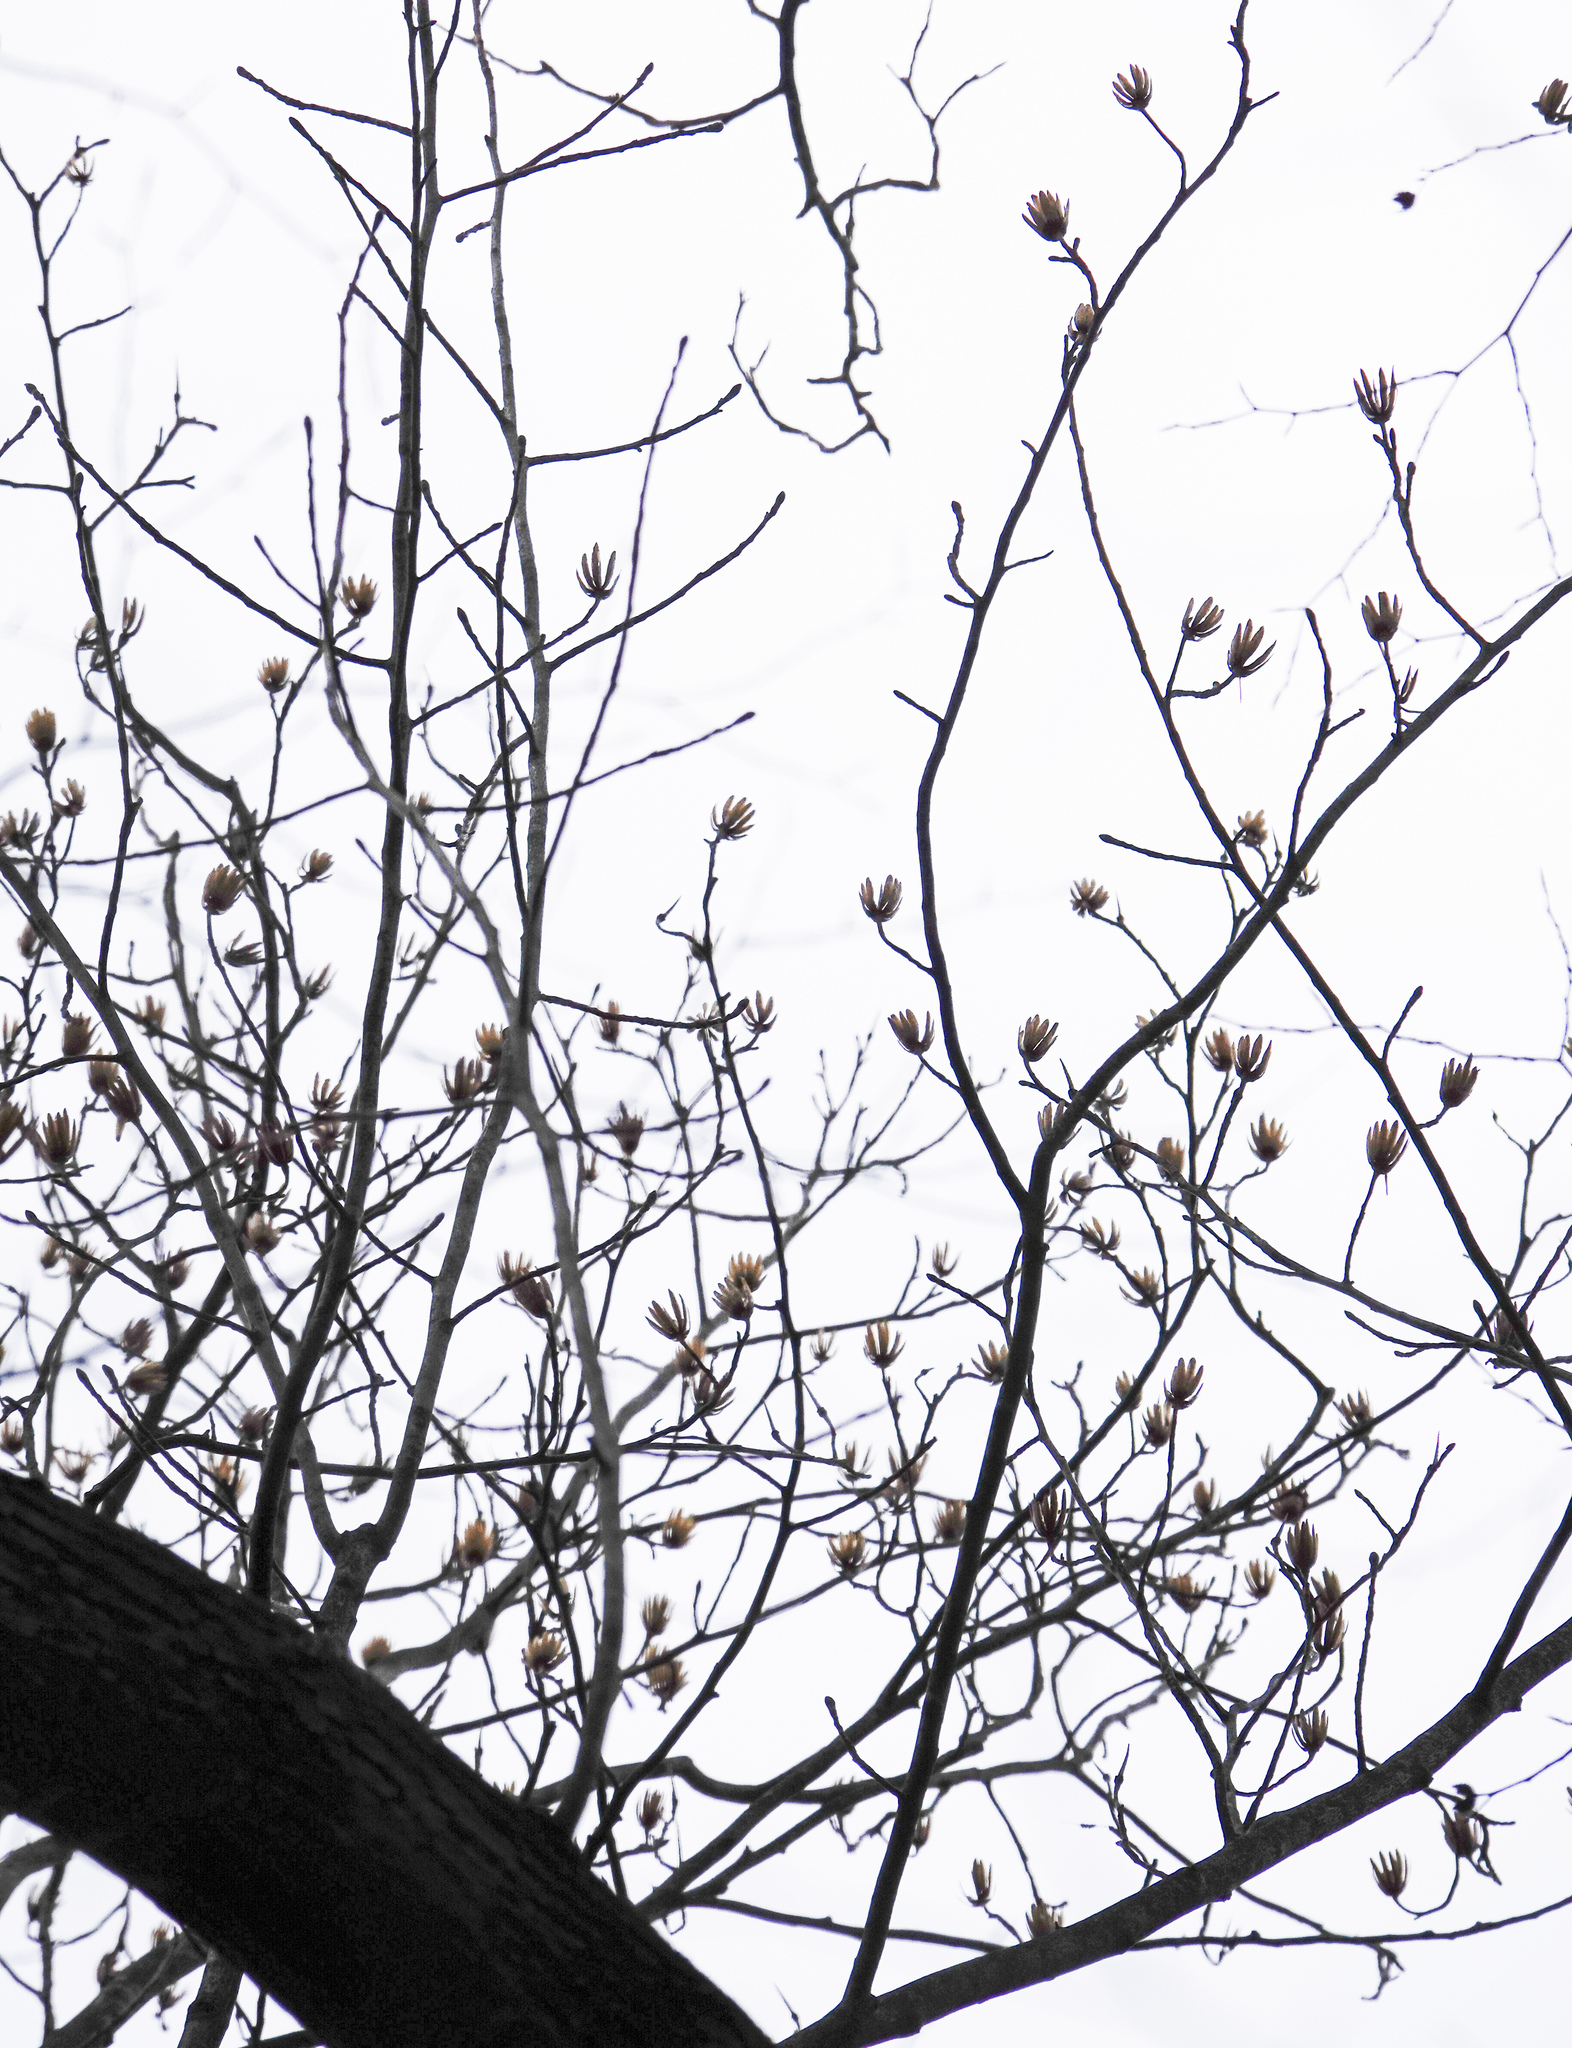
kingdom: Plantae
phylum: Tracheophyta
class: Magnoliopsida
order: Magnoliales
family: Magnoliaceae
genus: Liriodendron
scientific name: Liriodendron tulipifera
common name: Tulip tree
